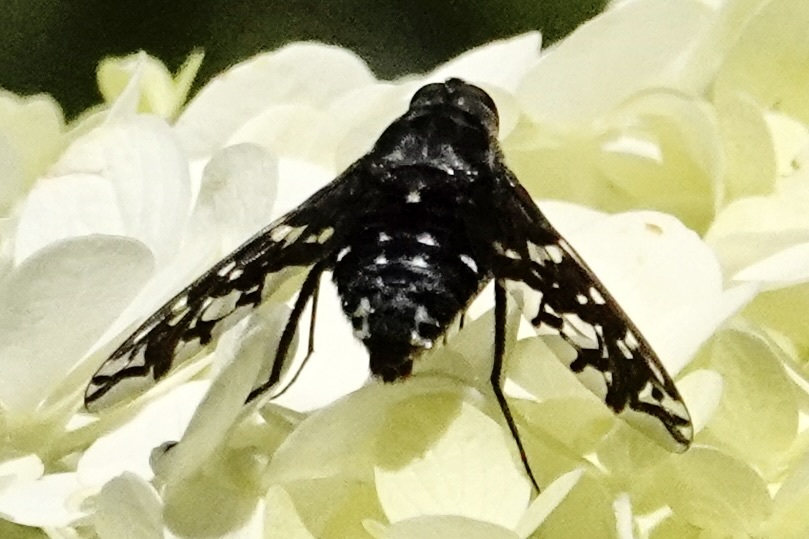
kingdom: Animalia
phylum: Arthropoda
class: Insecta
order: Diptera
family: Bombyliidae
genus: Xenox
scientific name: Xenox tigrinus
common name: Tiger bee fly
